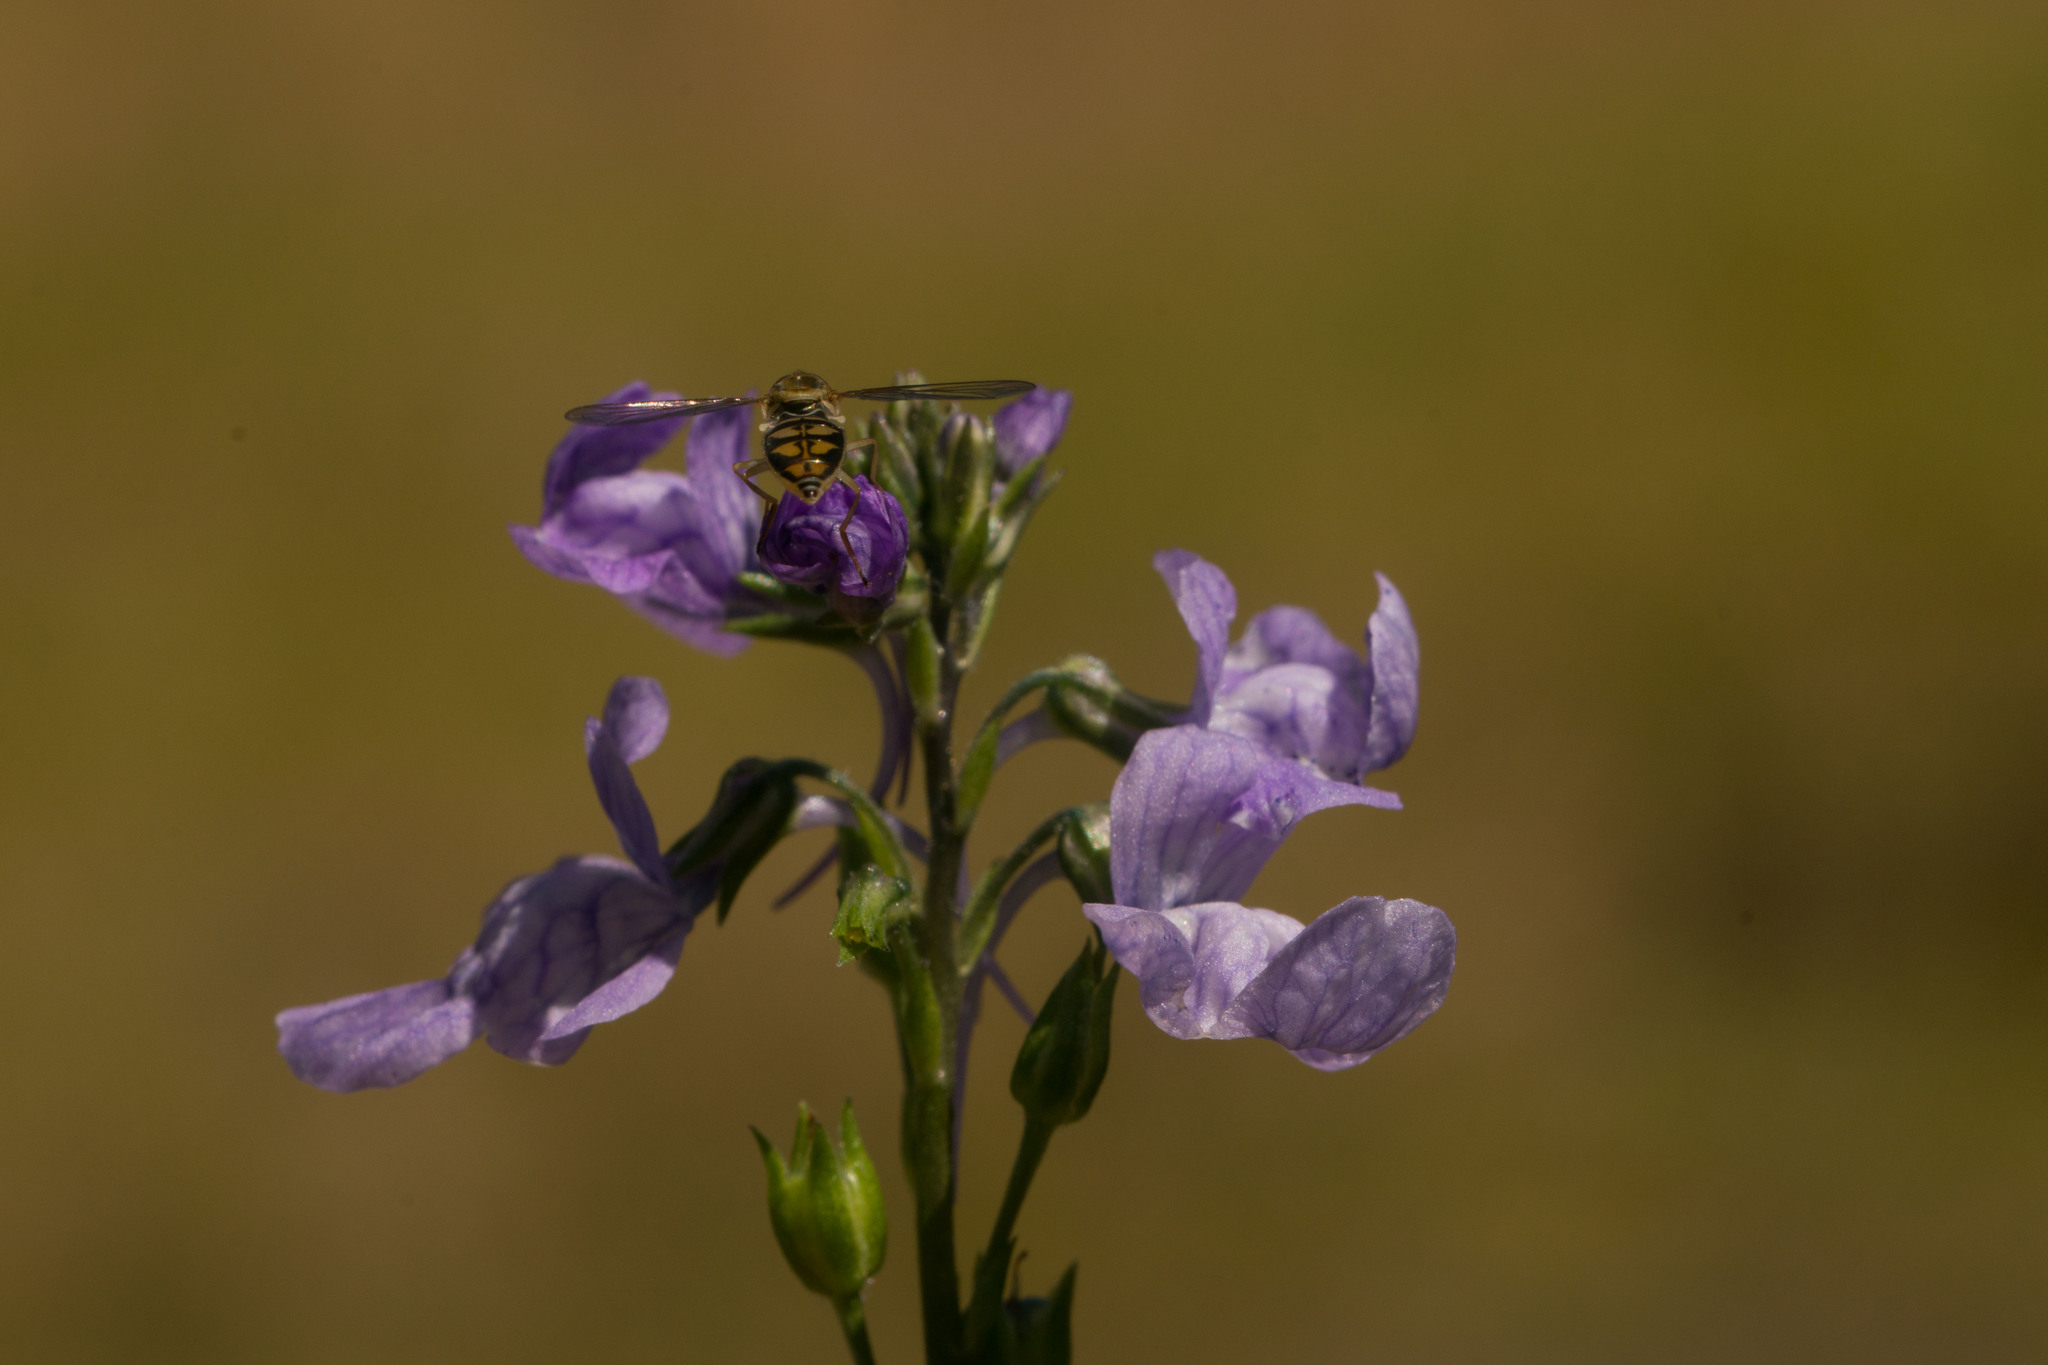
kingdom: Plantae
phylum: Tracheophyta
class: Magnoliopsida
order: Lamiales
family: Plantaginaceae
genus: Nuttallanthus
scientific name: Nuttallanthus texanus
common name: Texas toadflax
